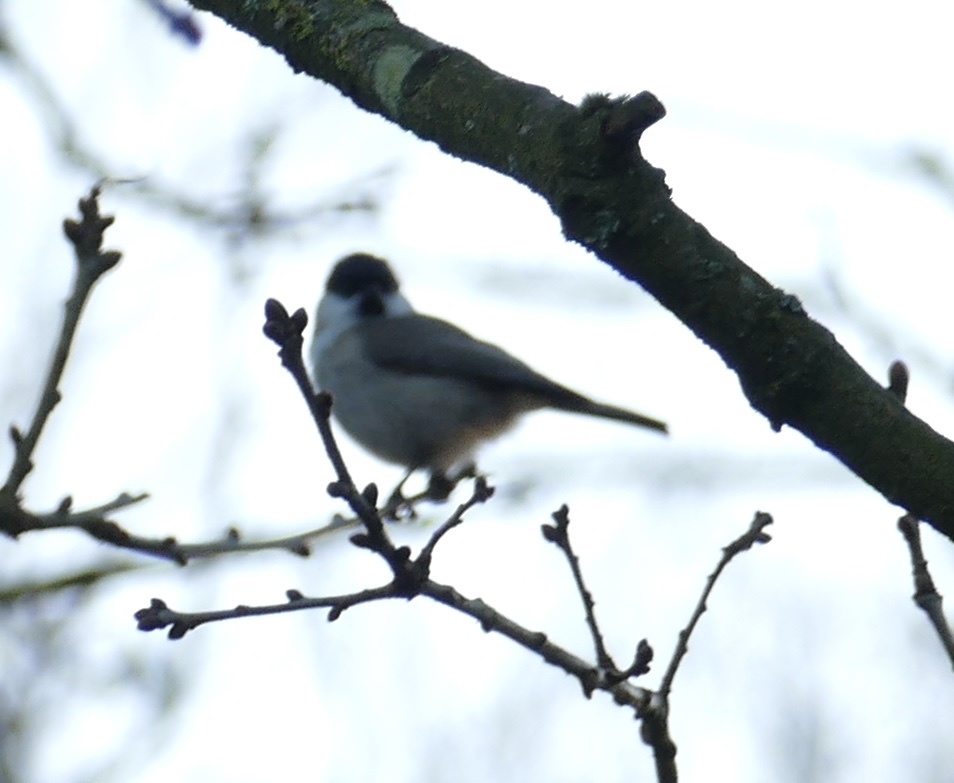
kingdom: Animalia
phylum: Chordata
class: Aves
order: Passeriformes
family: Paridae
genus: Poecile
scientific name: Poecile palustris
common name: Marsh tit
